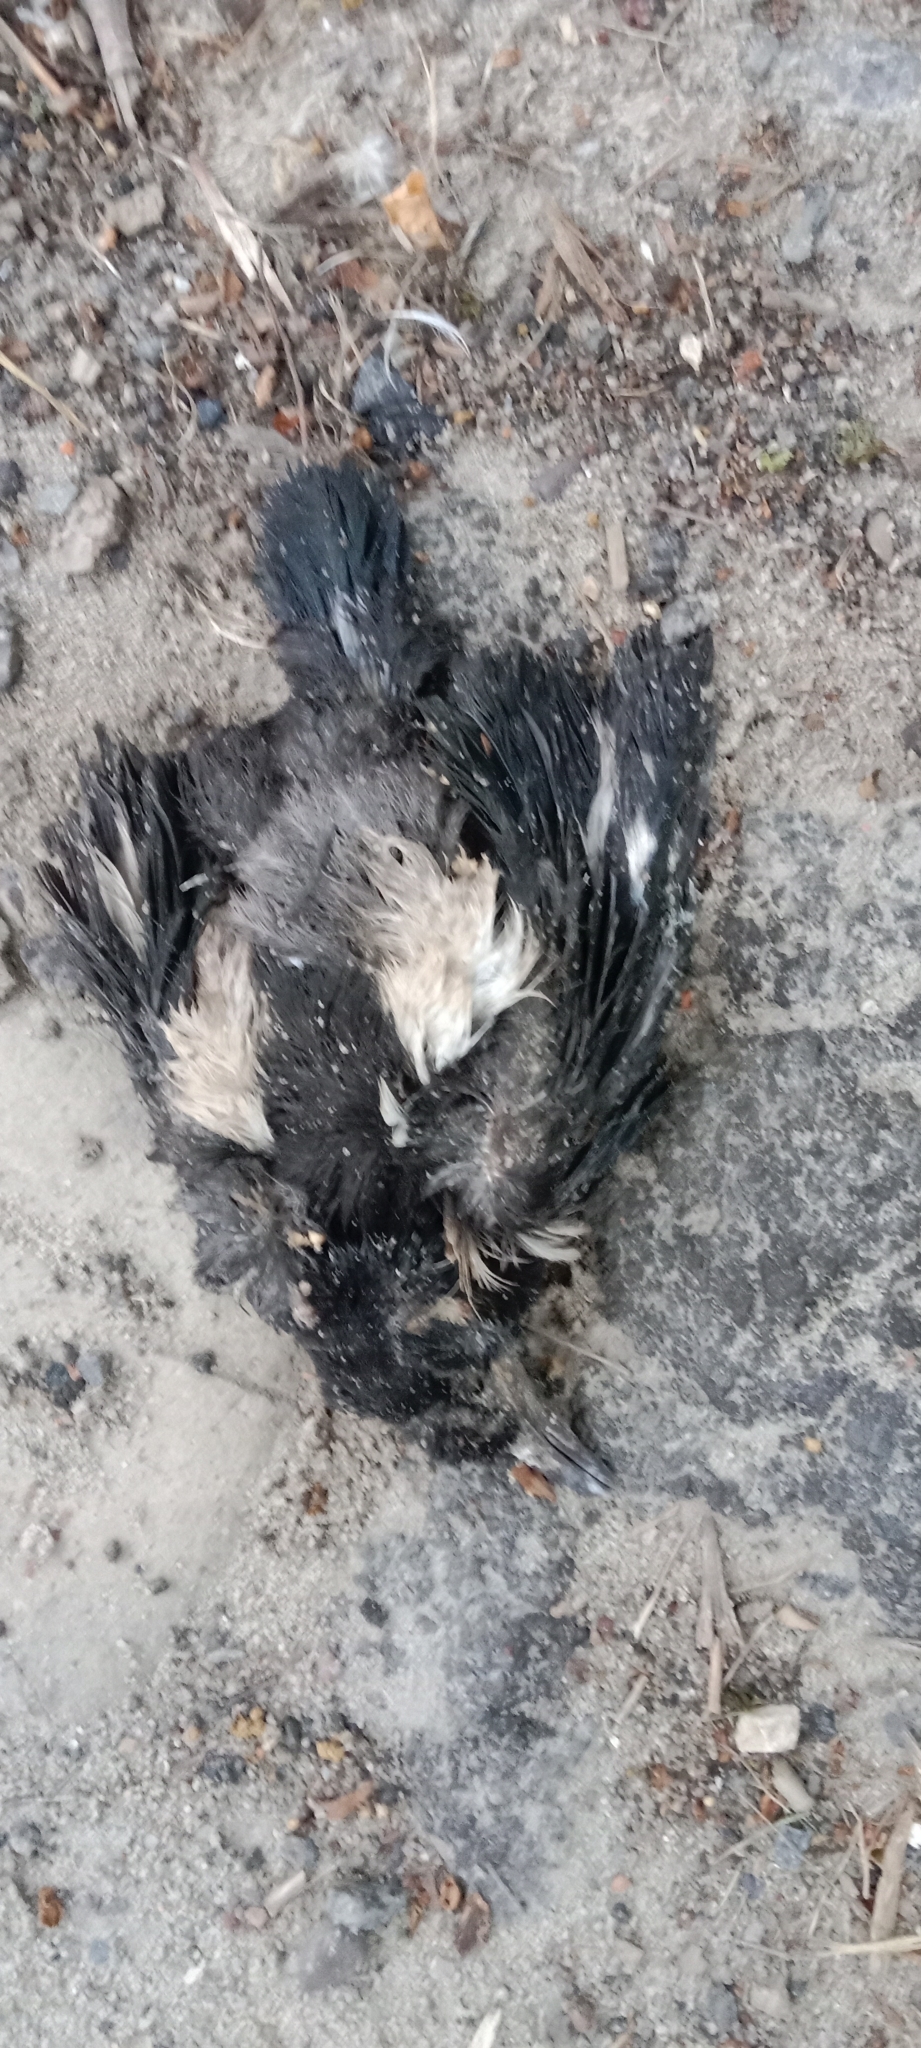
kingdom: Animalia
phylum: Chordata
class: Aves
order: Passeriformes
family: Corvidae
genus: Pica
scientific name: Pica pica
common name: Eurasian magpie
